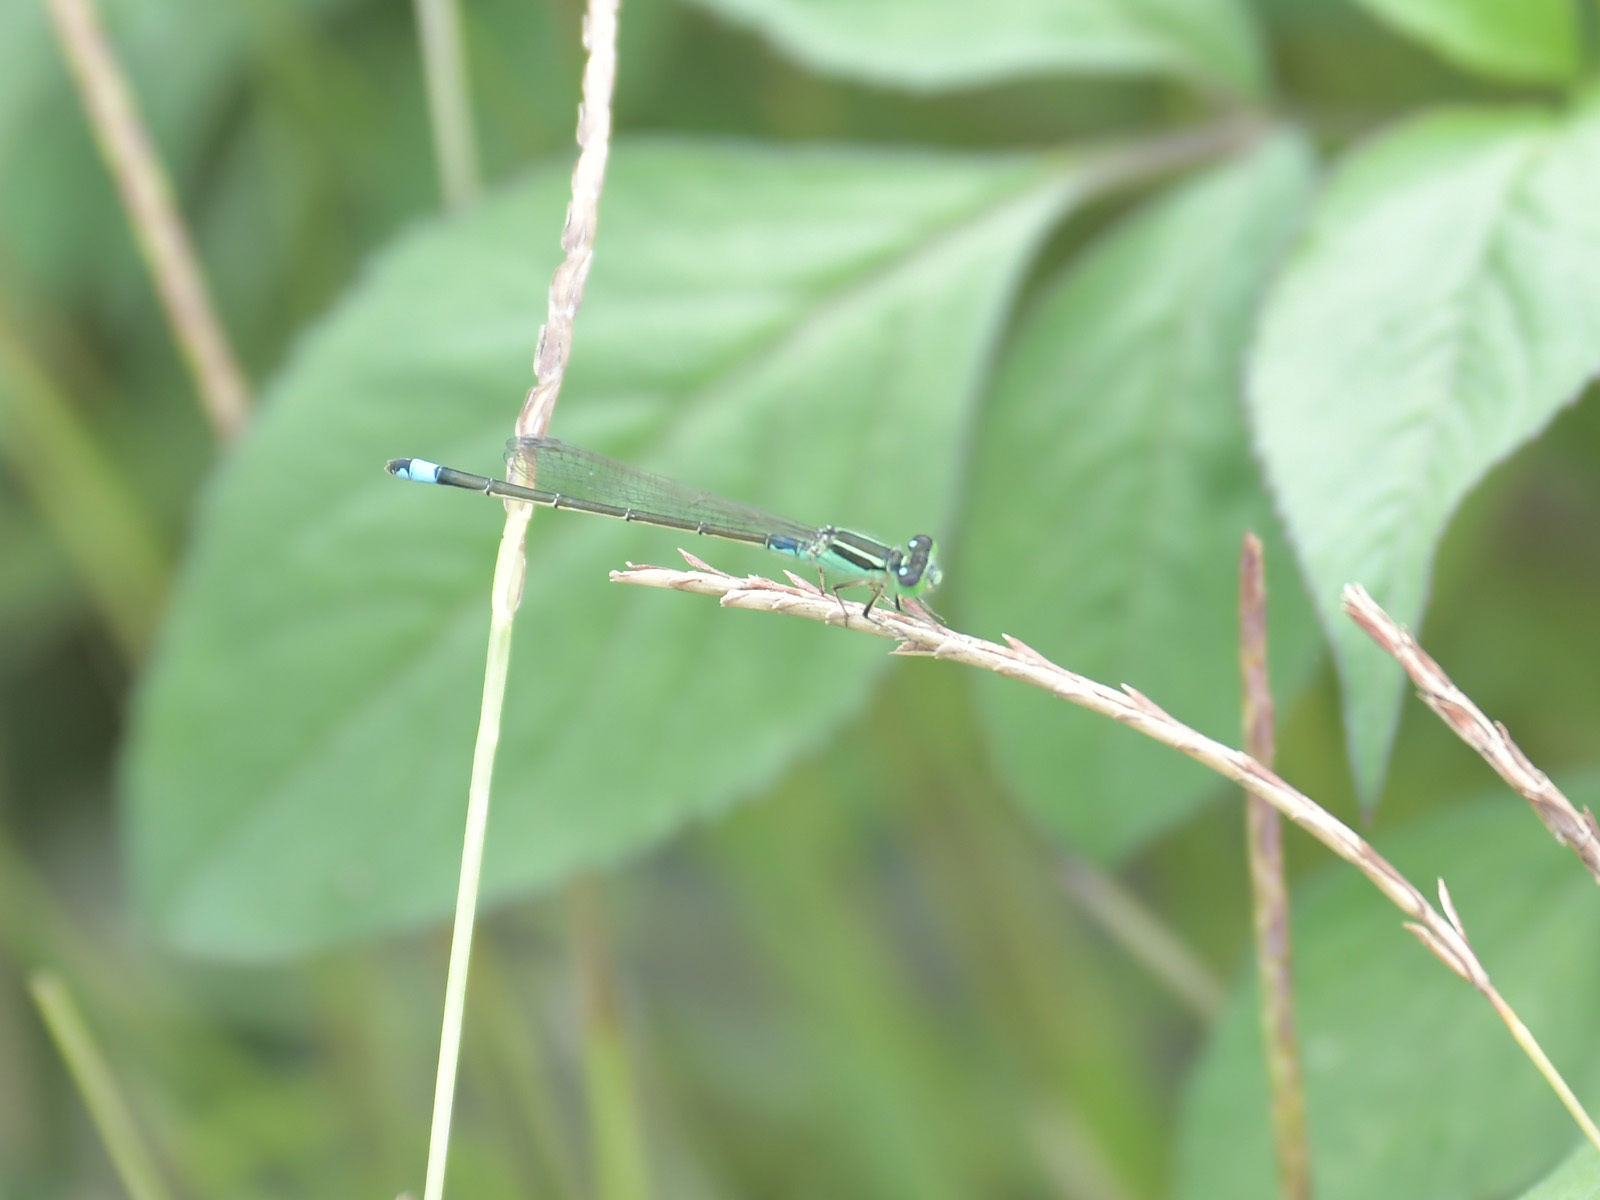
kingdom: Animalia
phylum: Arthropoda
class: Insecta
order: Odonata
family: Coenagrionidae
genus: Ischnura
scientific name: Ischnura senegalensis
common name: Tropical bluetail
